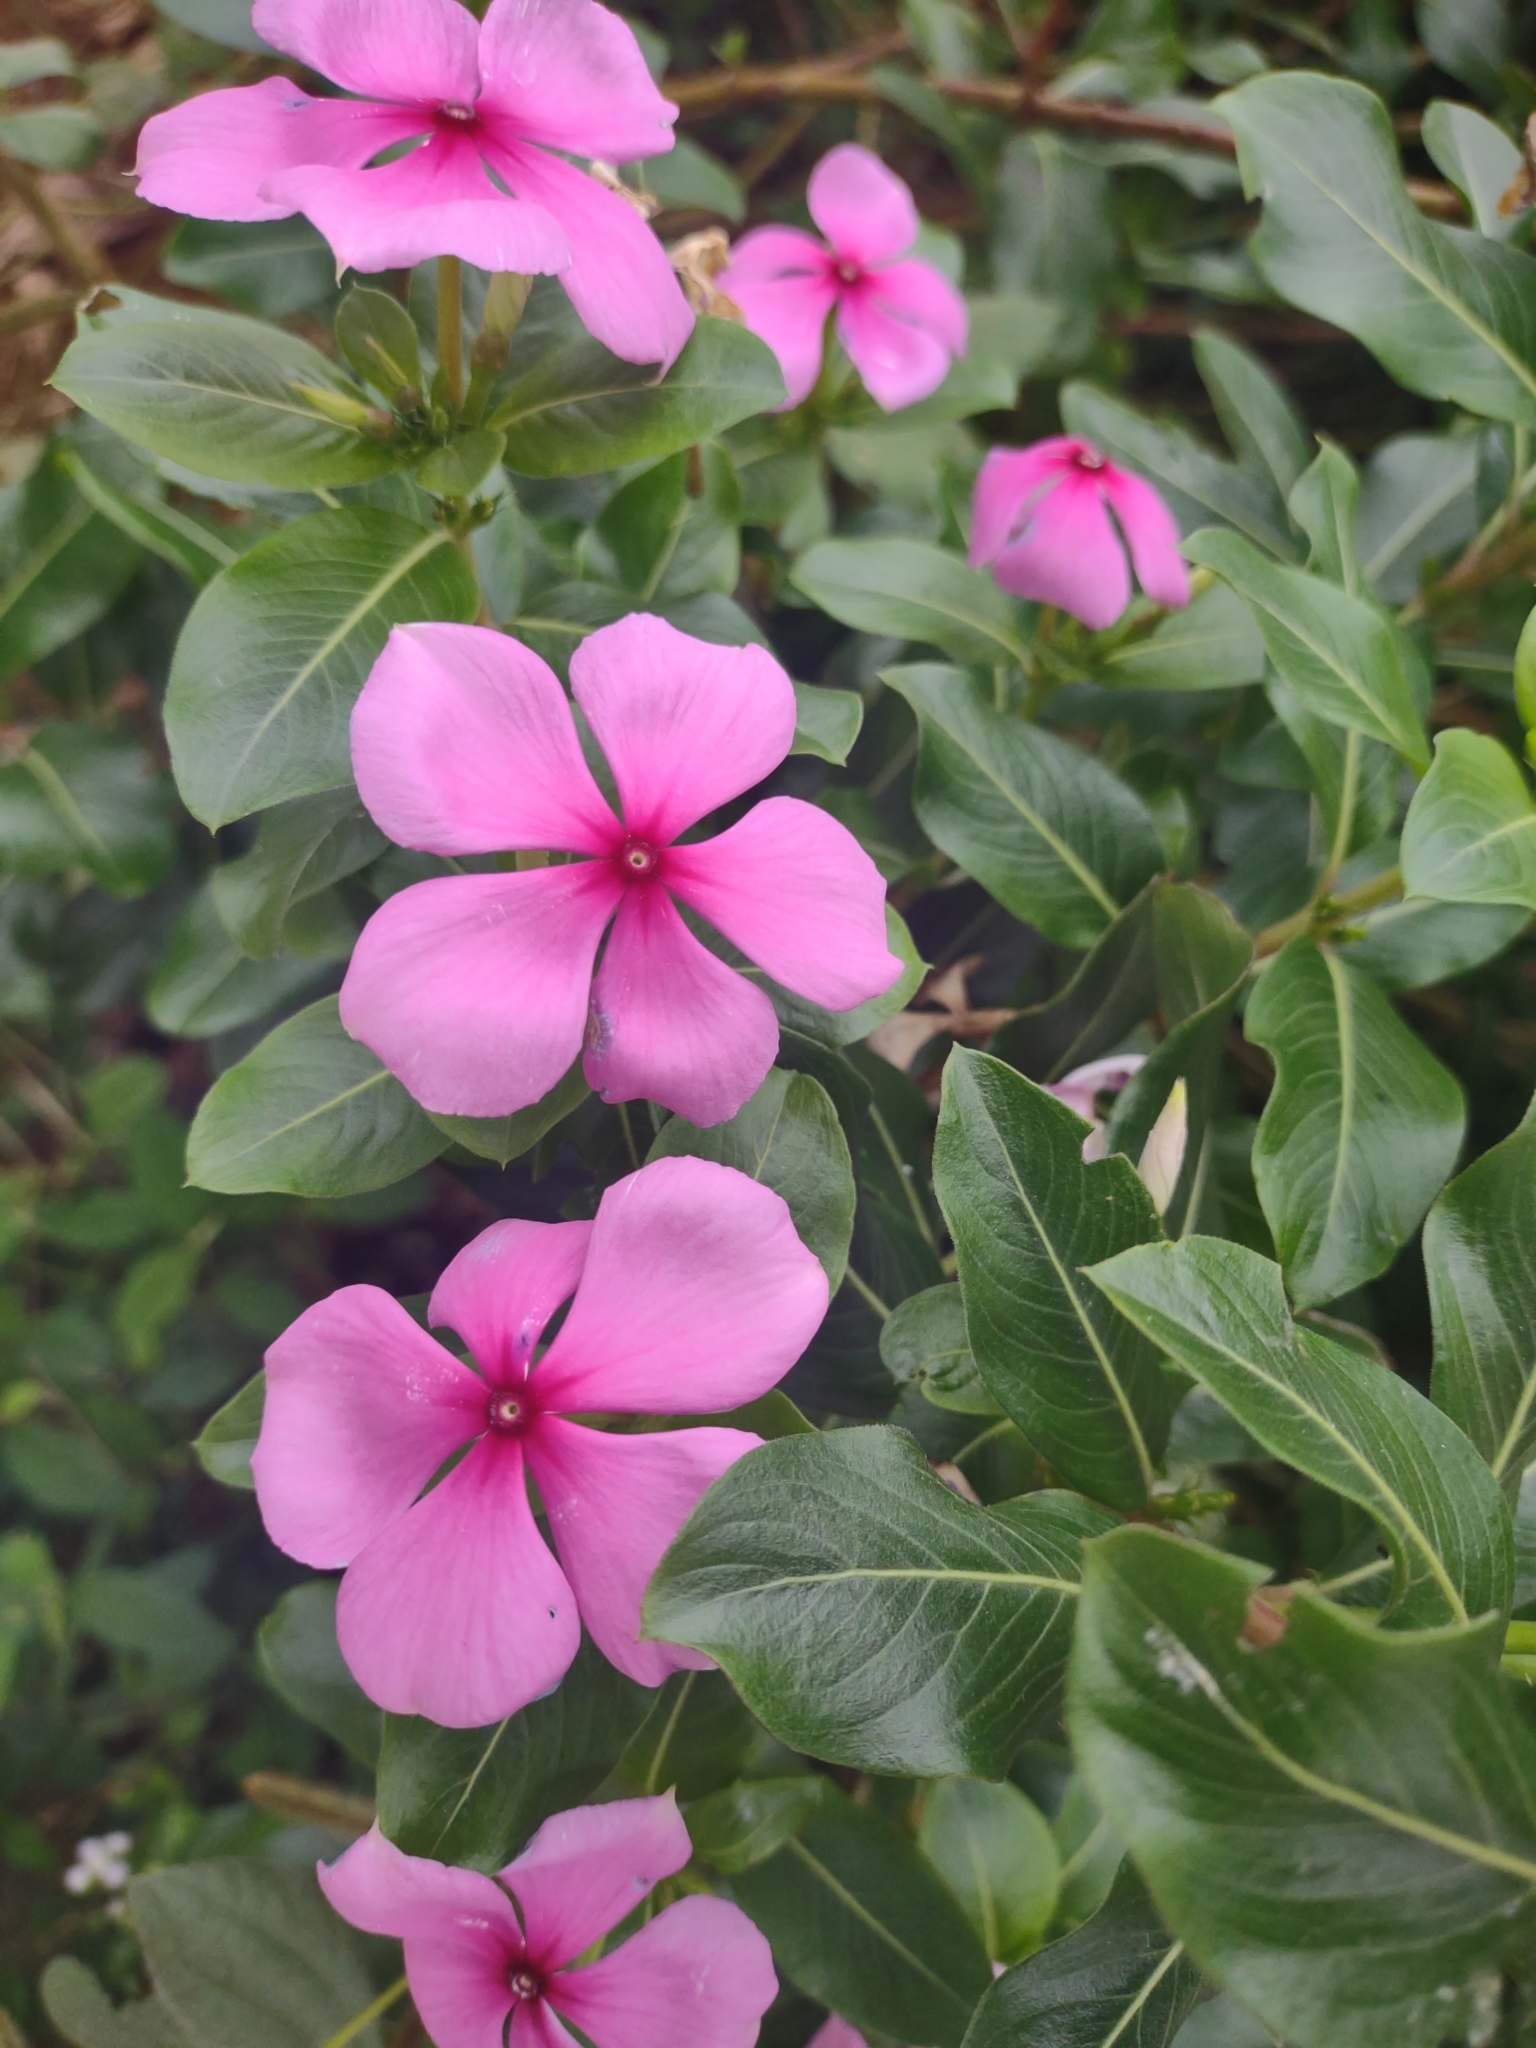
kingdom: Plantae
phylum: Tracheophyta
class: Magnoliopsida
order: Gentianales
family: Apocynaceae
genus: Catharanthus
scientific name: Catharanthus roseus
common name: Madagascar periwinkle
